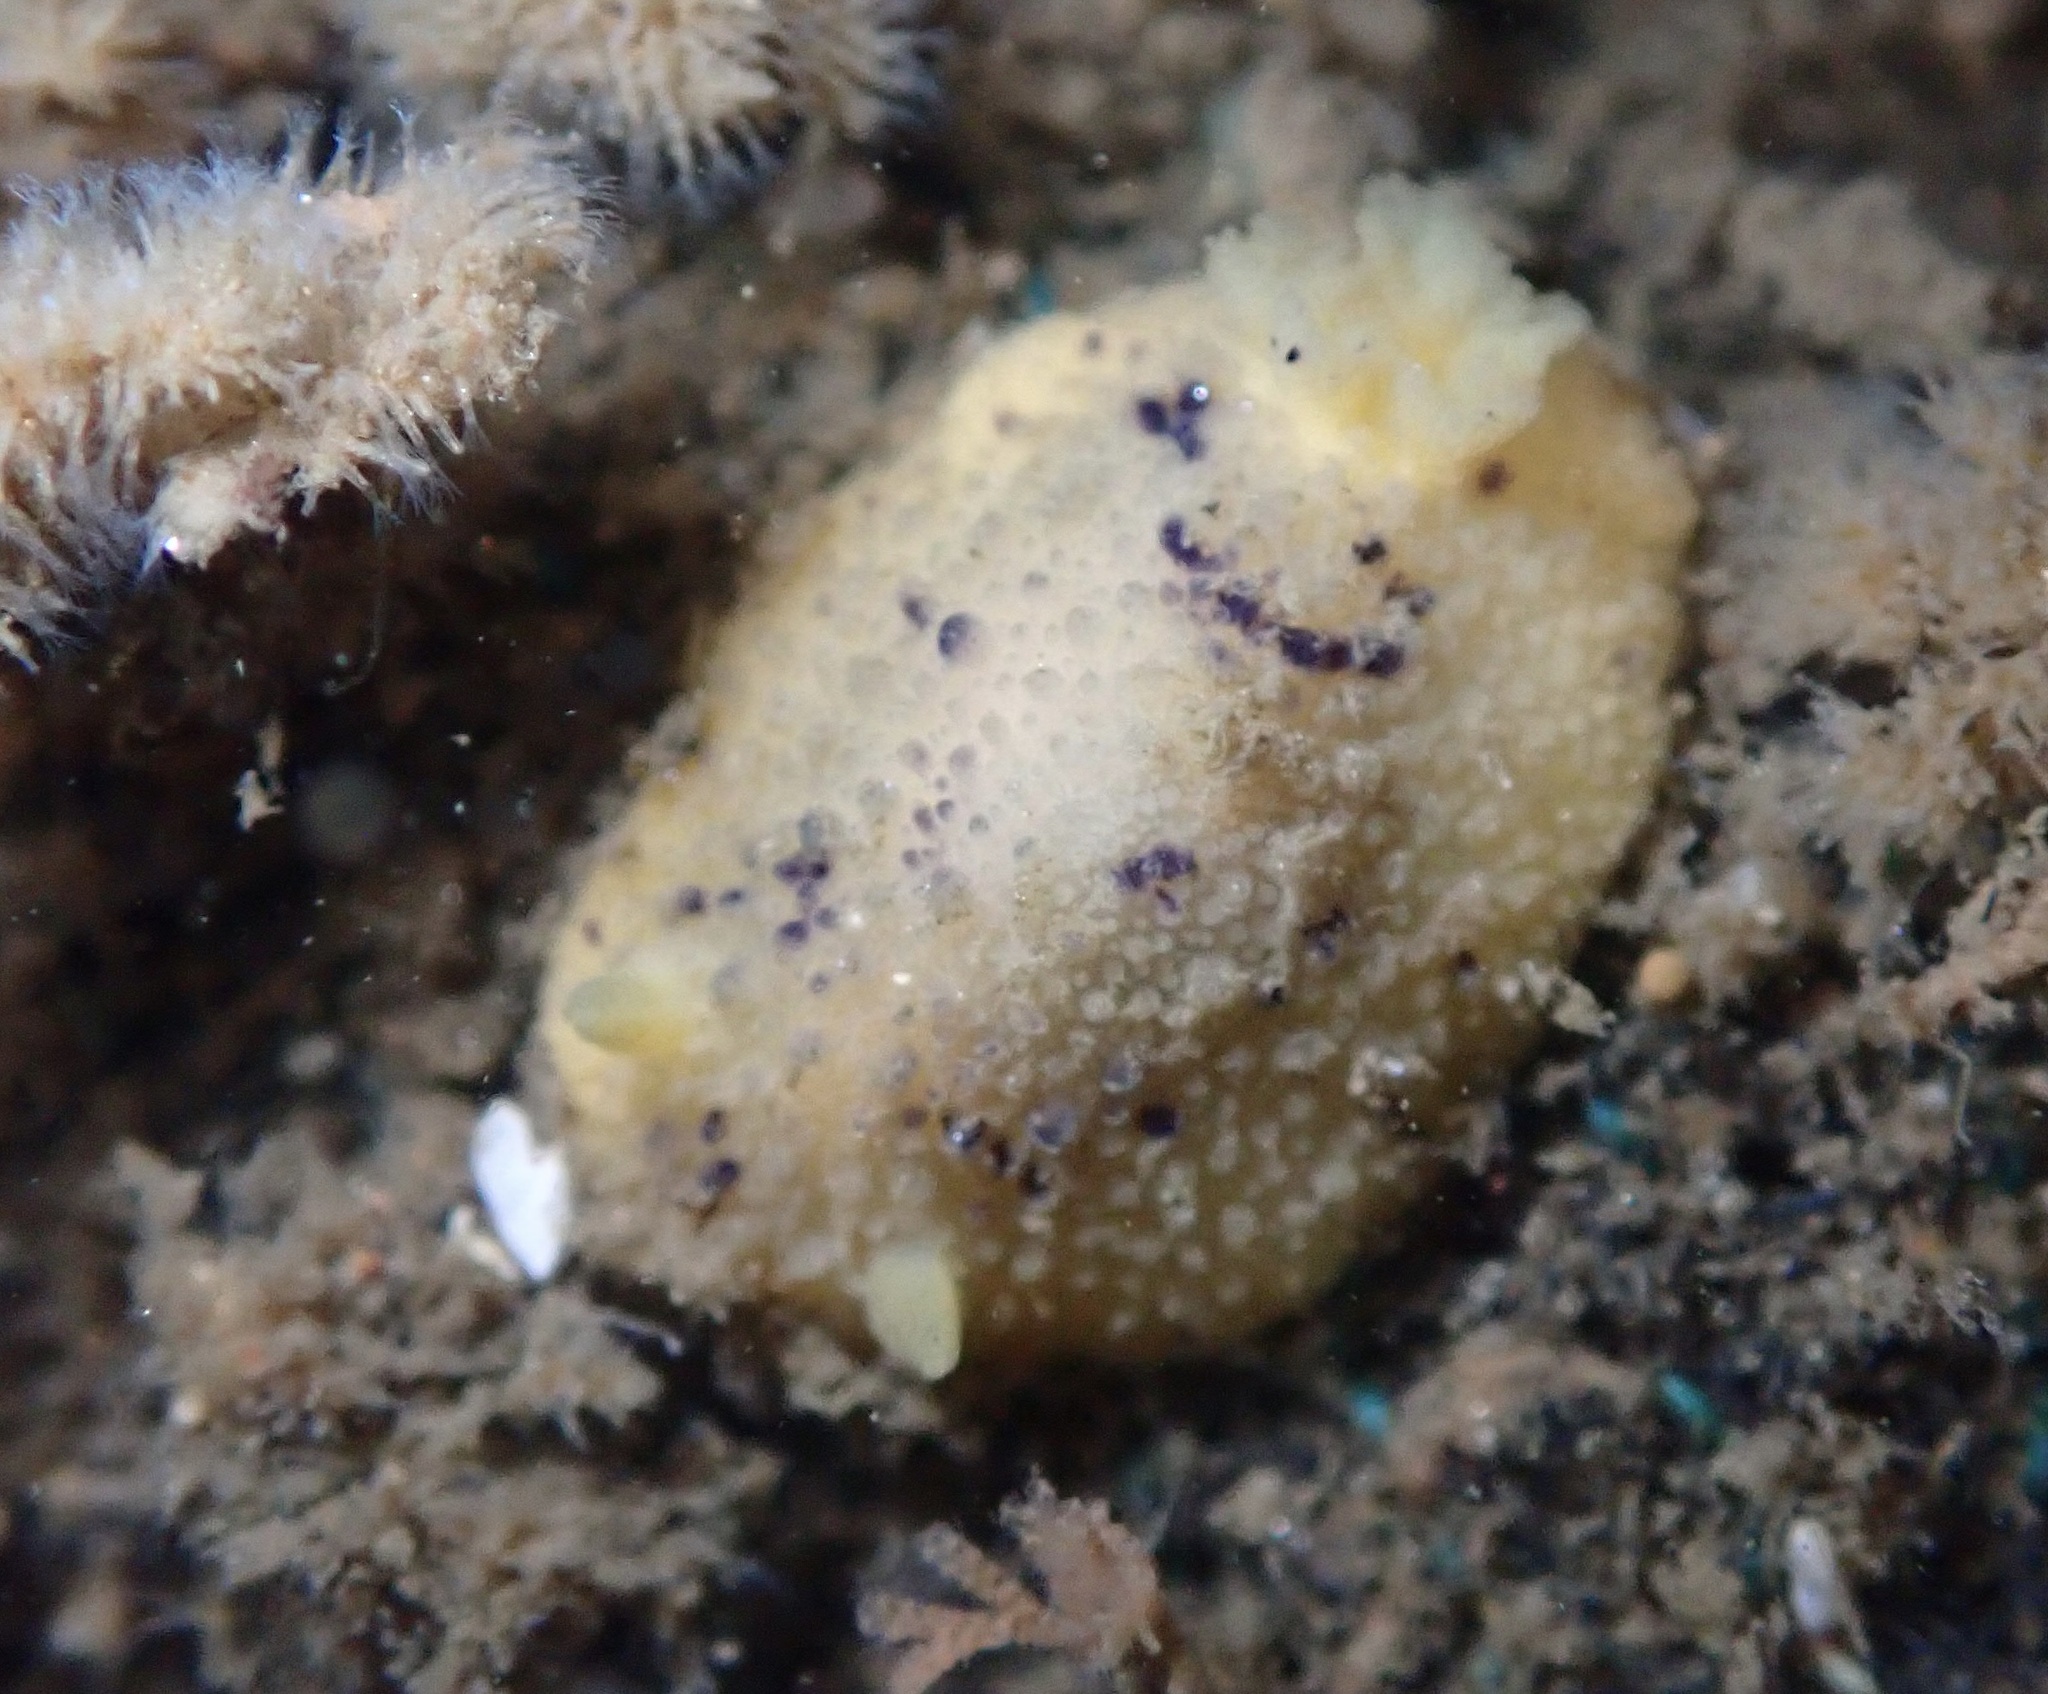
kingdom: Animalia
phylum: Mollusca
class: Gastropoda
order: Nudibranchia
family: Dorididae
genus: Doris
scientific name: Doris montereyensis
